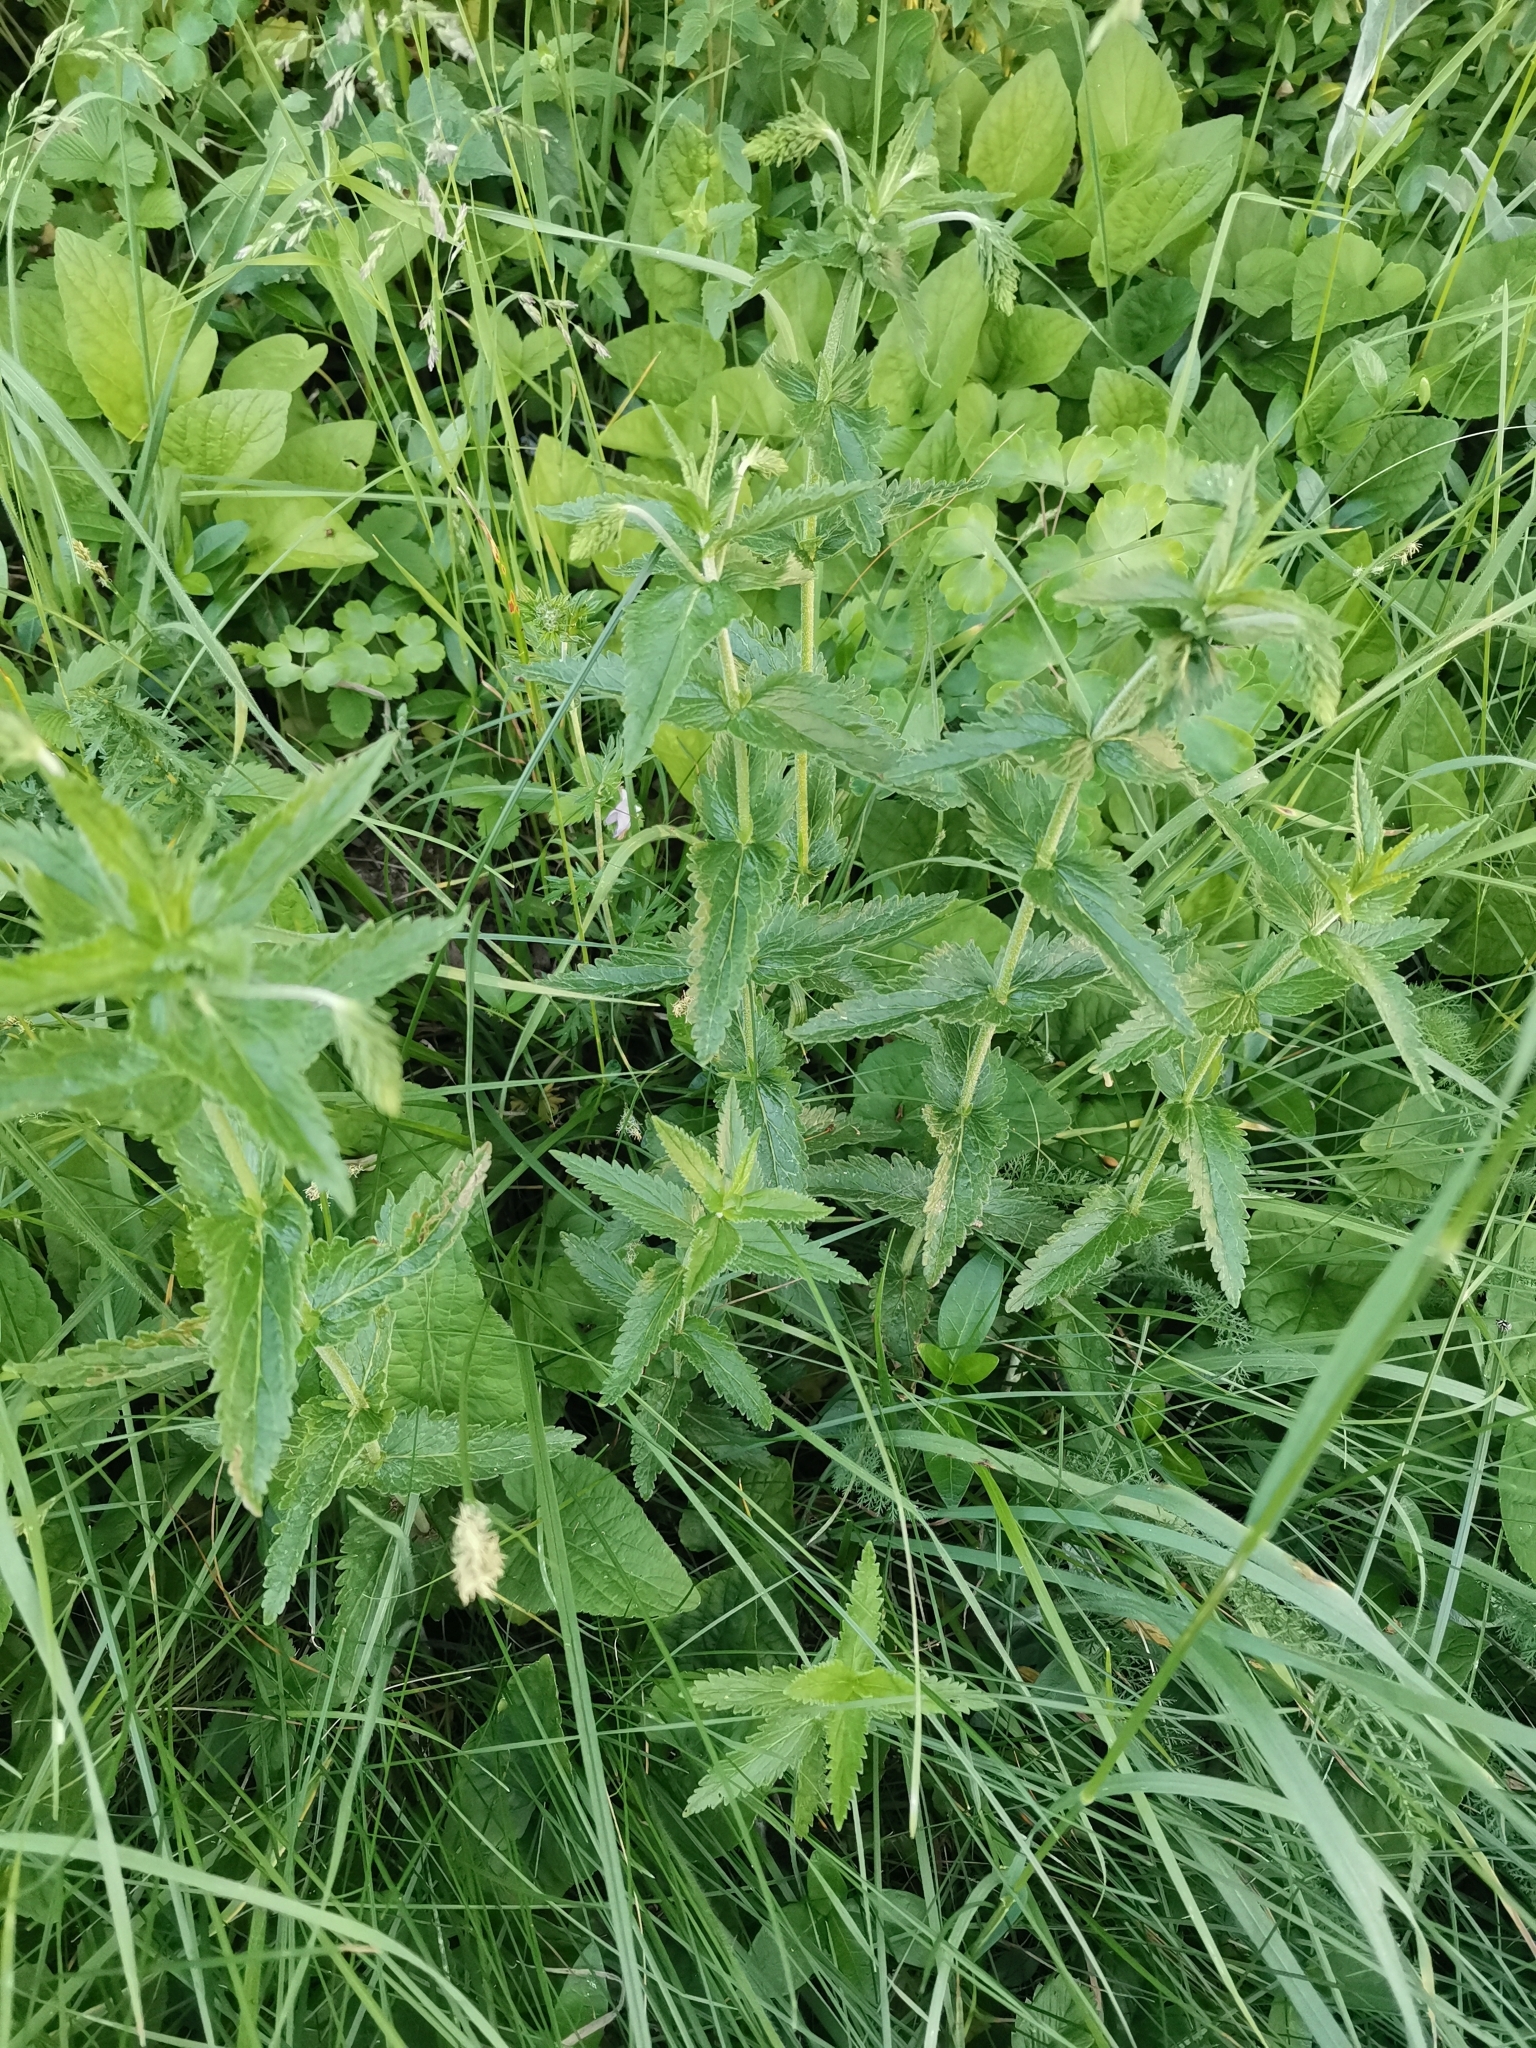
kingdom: Plantae
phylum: Tracheophyta
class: Magnoliopsida
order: Lamiales
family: Plantaginaceae
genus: Veronica
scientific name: Veronica teucrium
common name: Large speedwell
